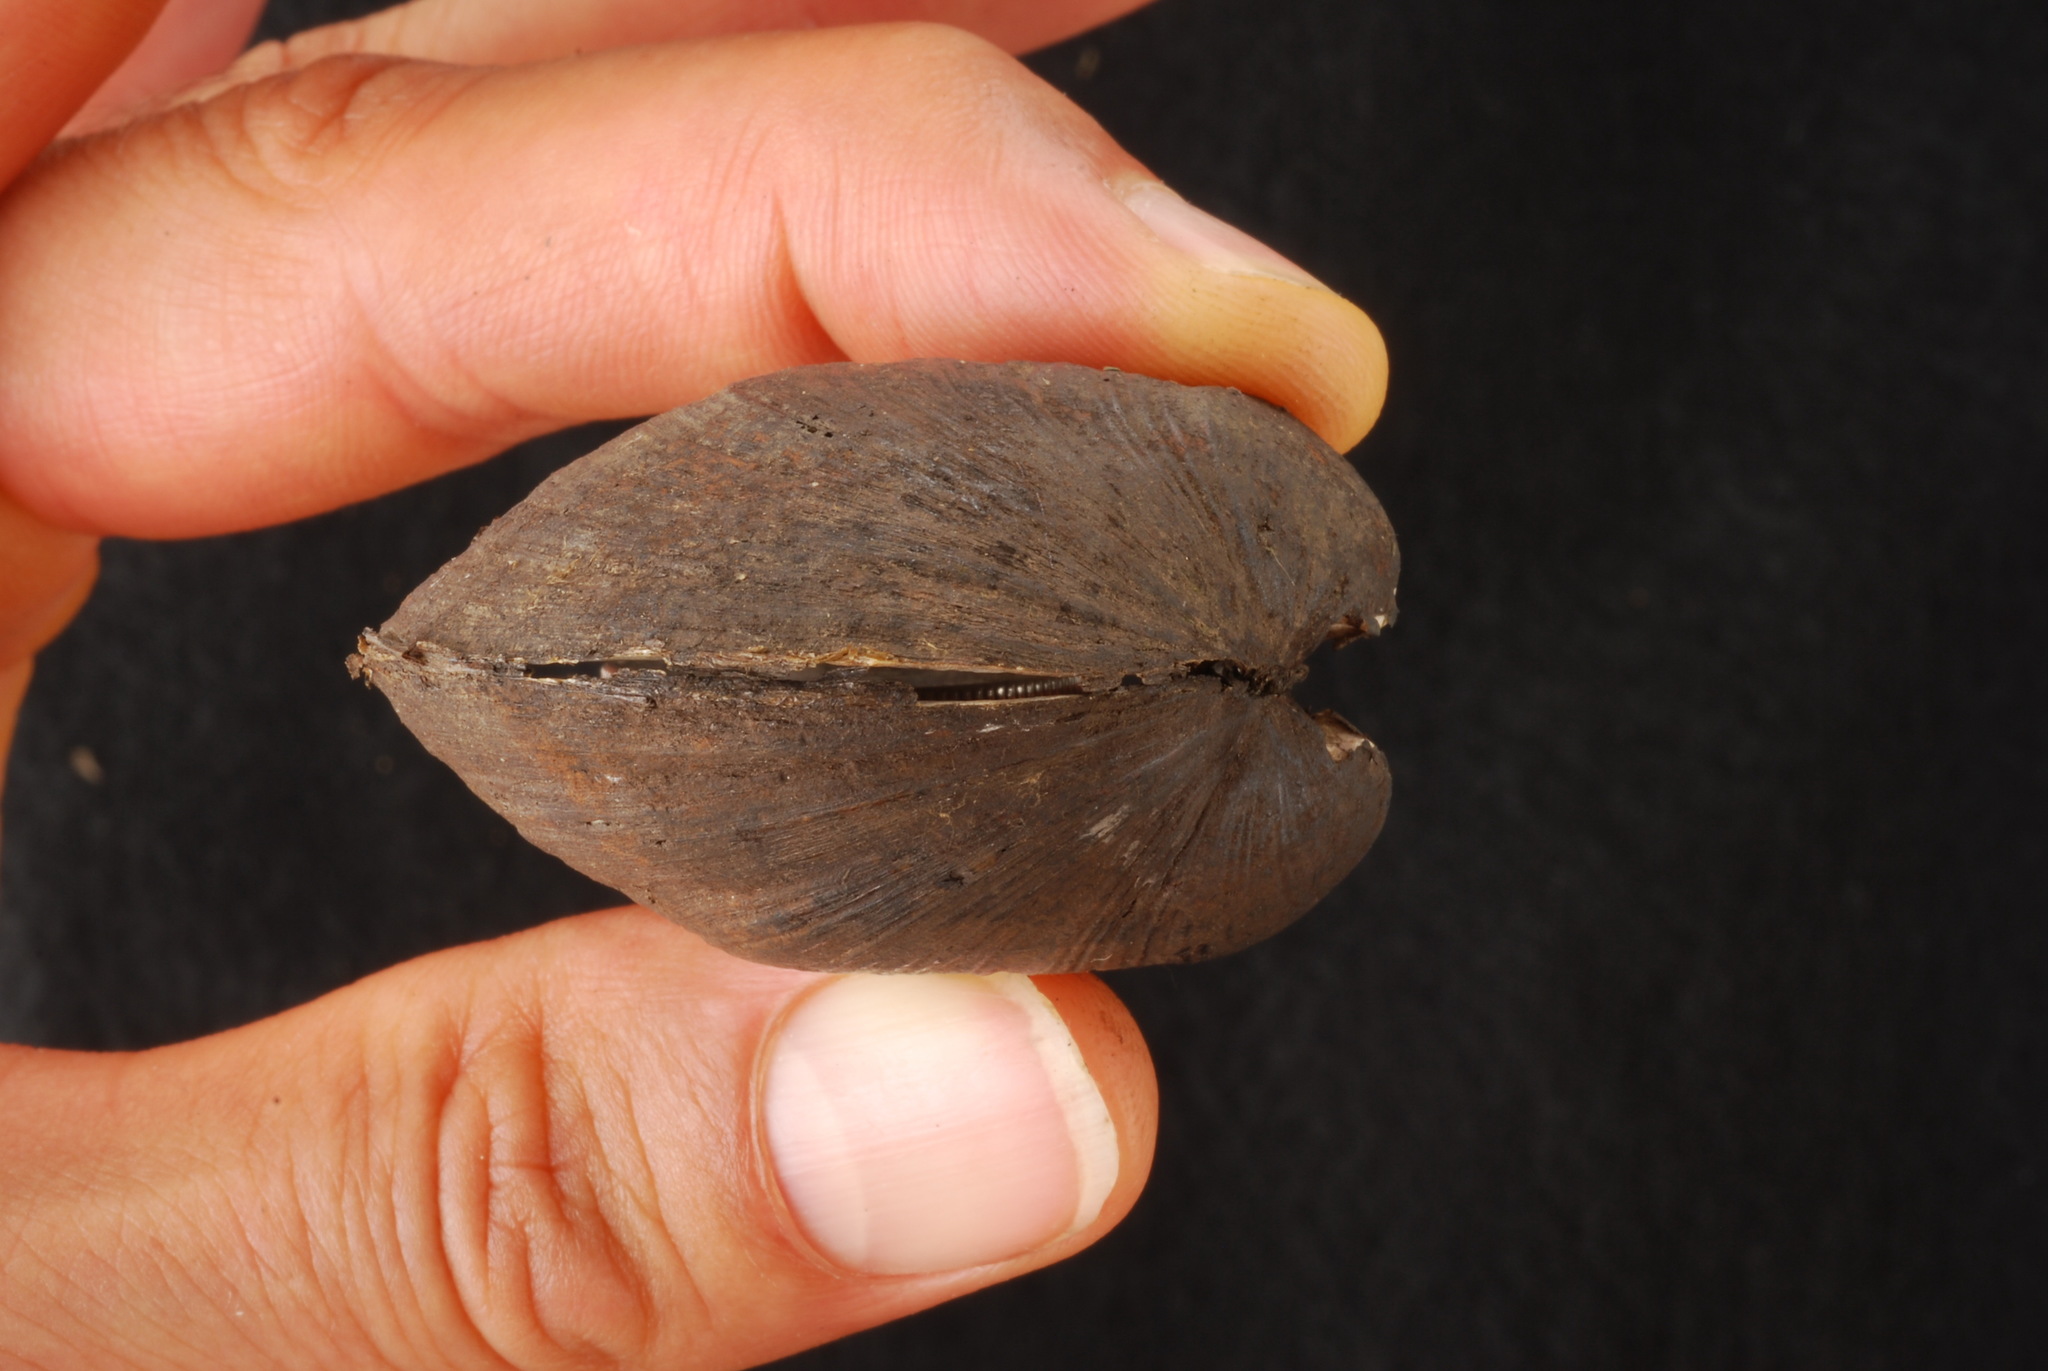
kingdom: Animalia
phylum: Mollusca
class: Bivalvia
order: Unionida
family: Unionidae
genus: Truncilla
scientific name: Truncilla truncata
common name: Deertoe
